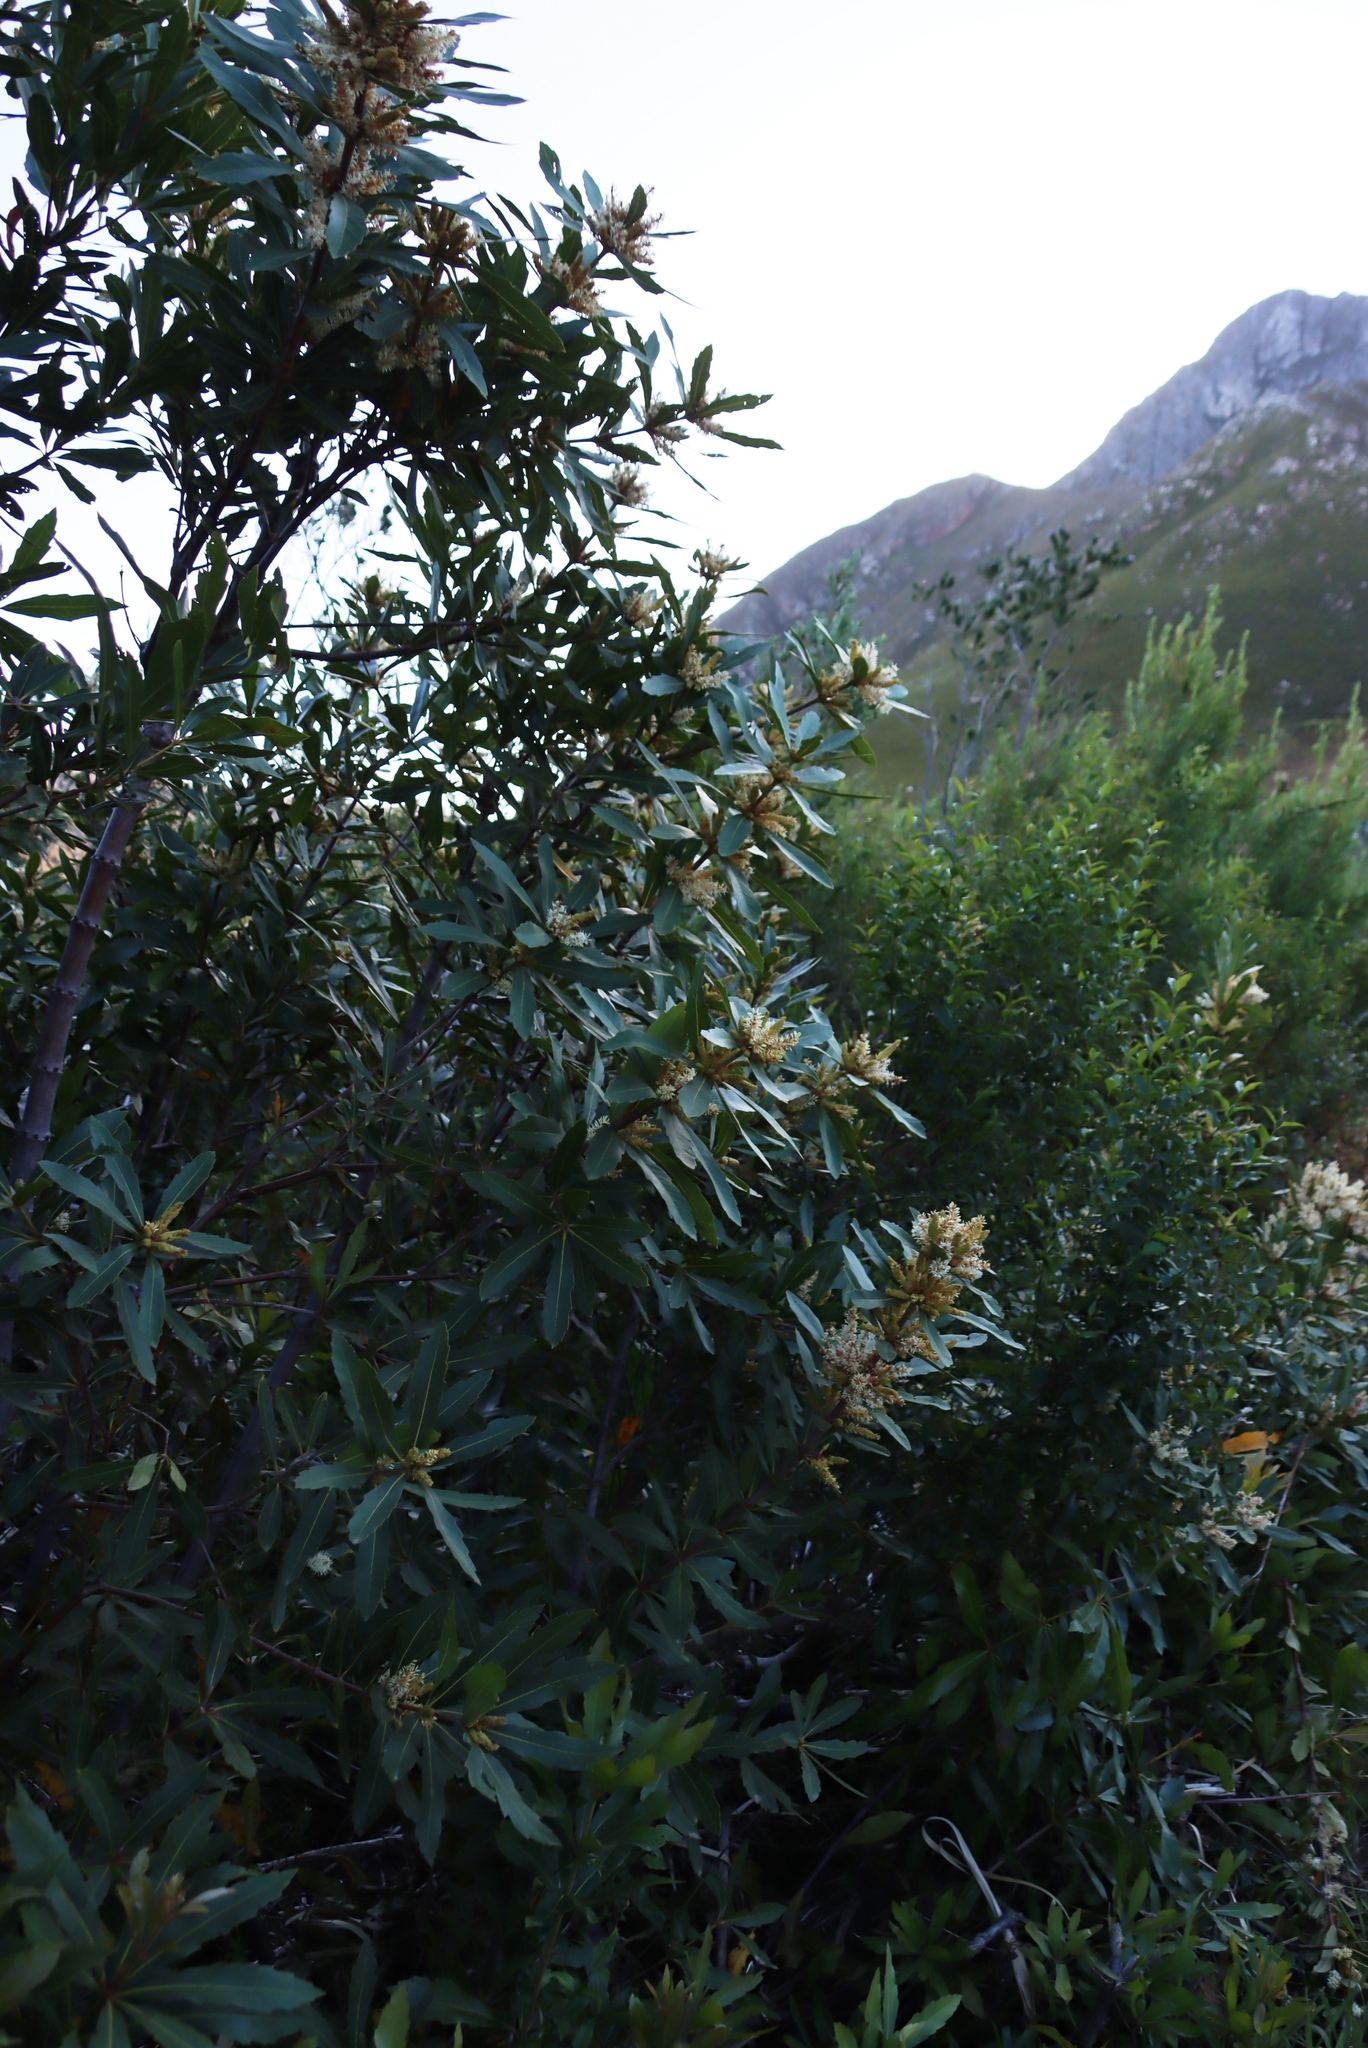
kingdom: Plantae
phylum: Tracheophyta
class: Magnoliopsida
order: Proteales
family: Proteaceae
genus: Brabejum
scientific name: Brabejum stellatifolium
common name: Wild almond
